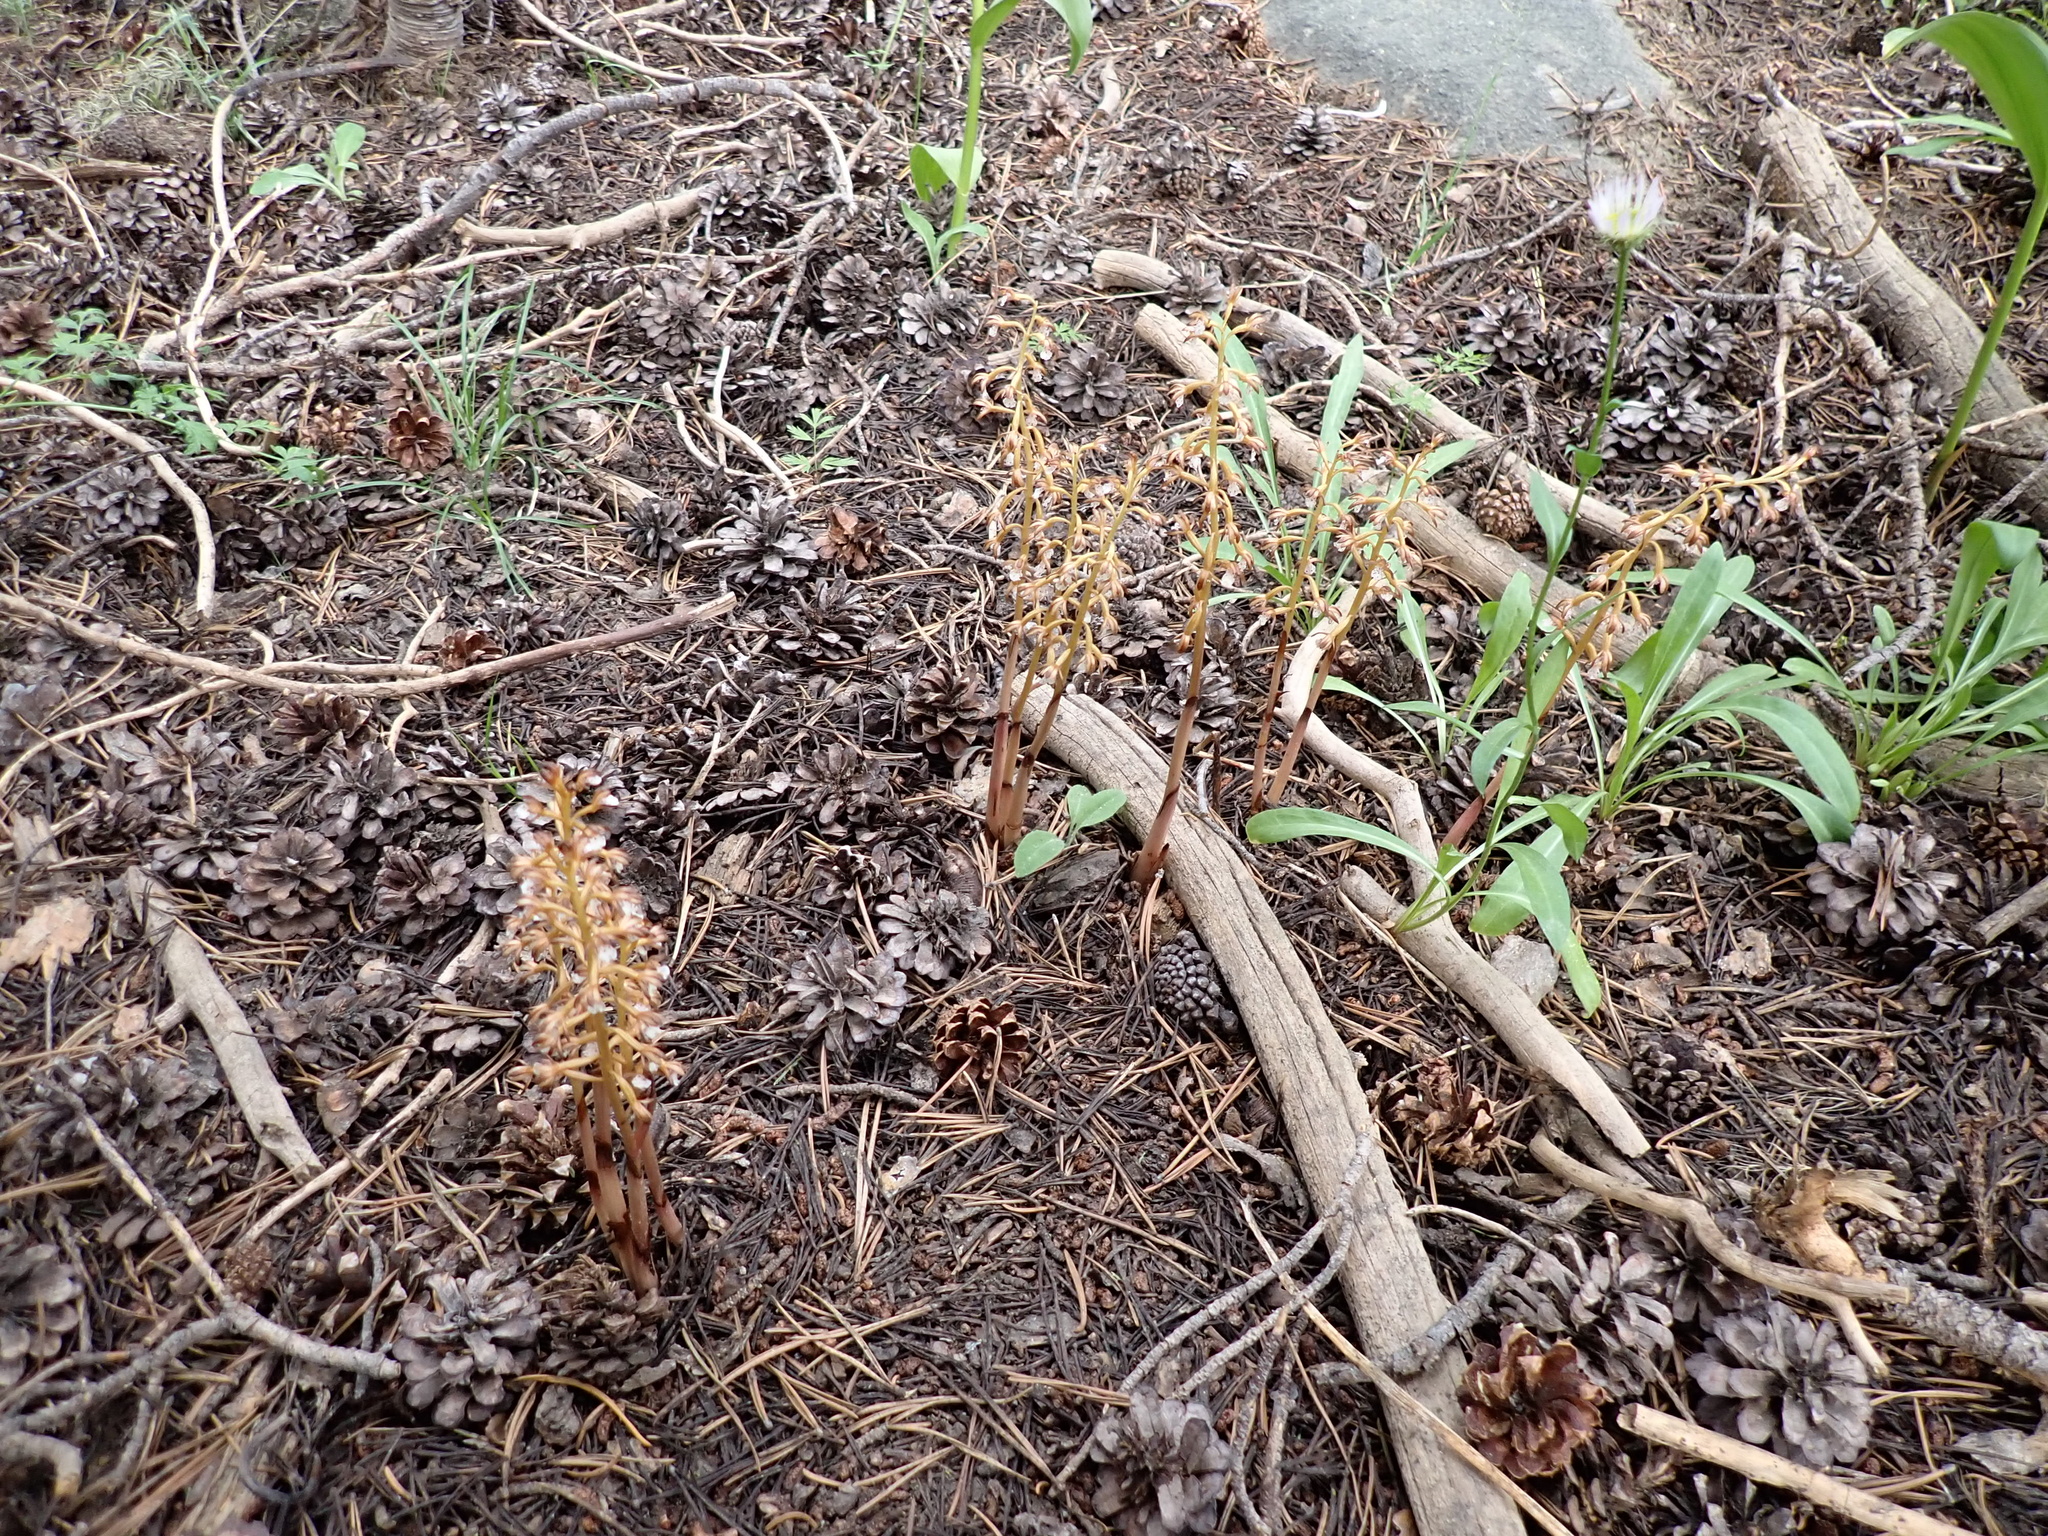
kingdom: Plantae
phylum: Tracheophyta
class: Liliopsida
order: Asparagales
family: Orchidaceae
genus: Corallorhiza
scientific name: Corallorhiza maculata
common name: Spotted coralroot
